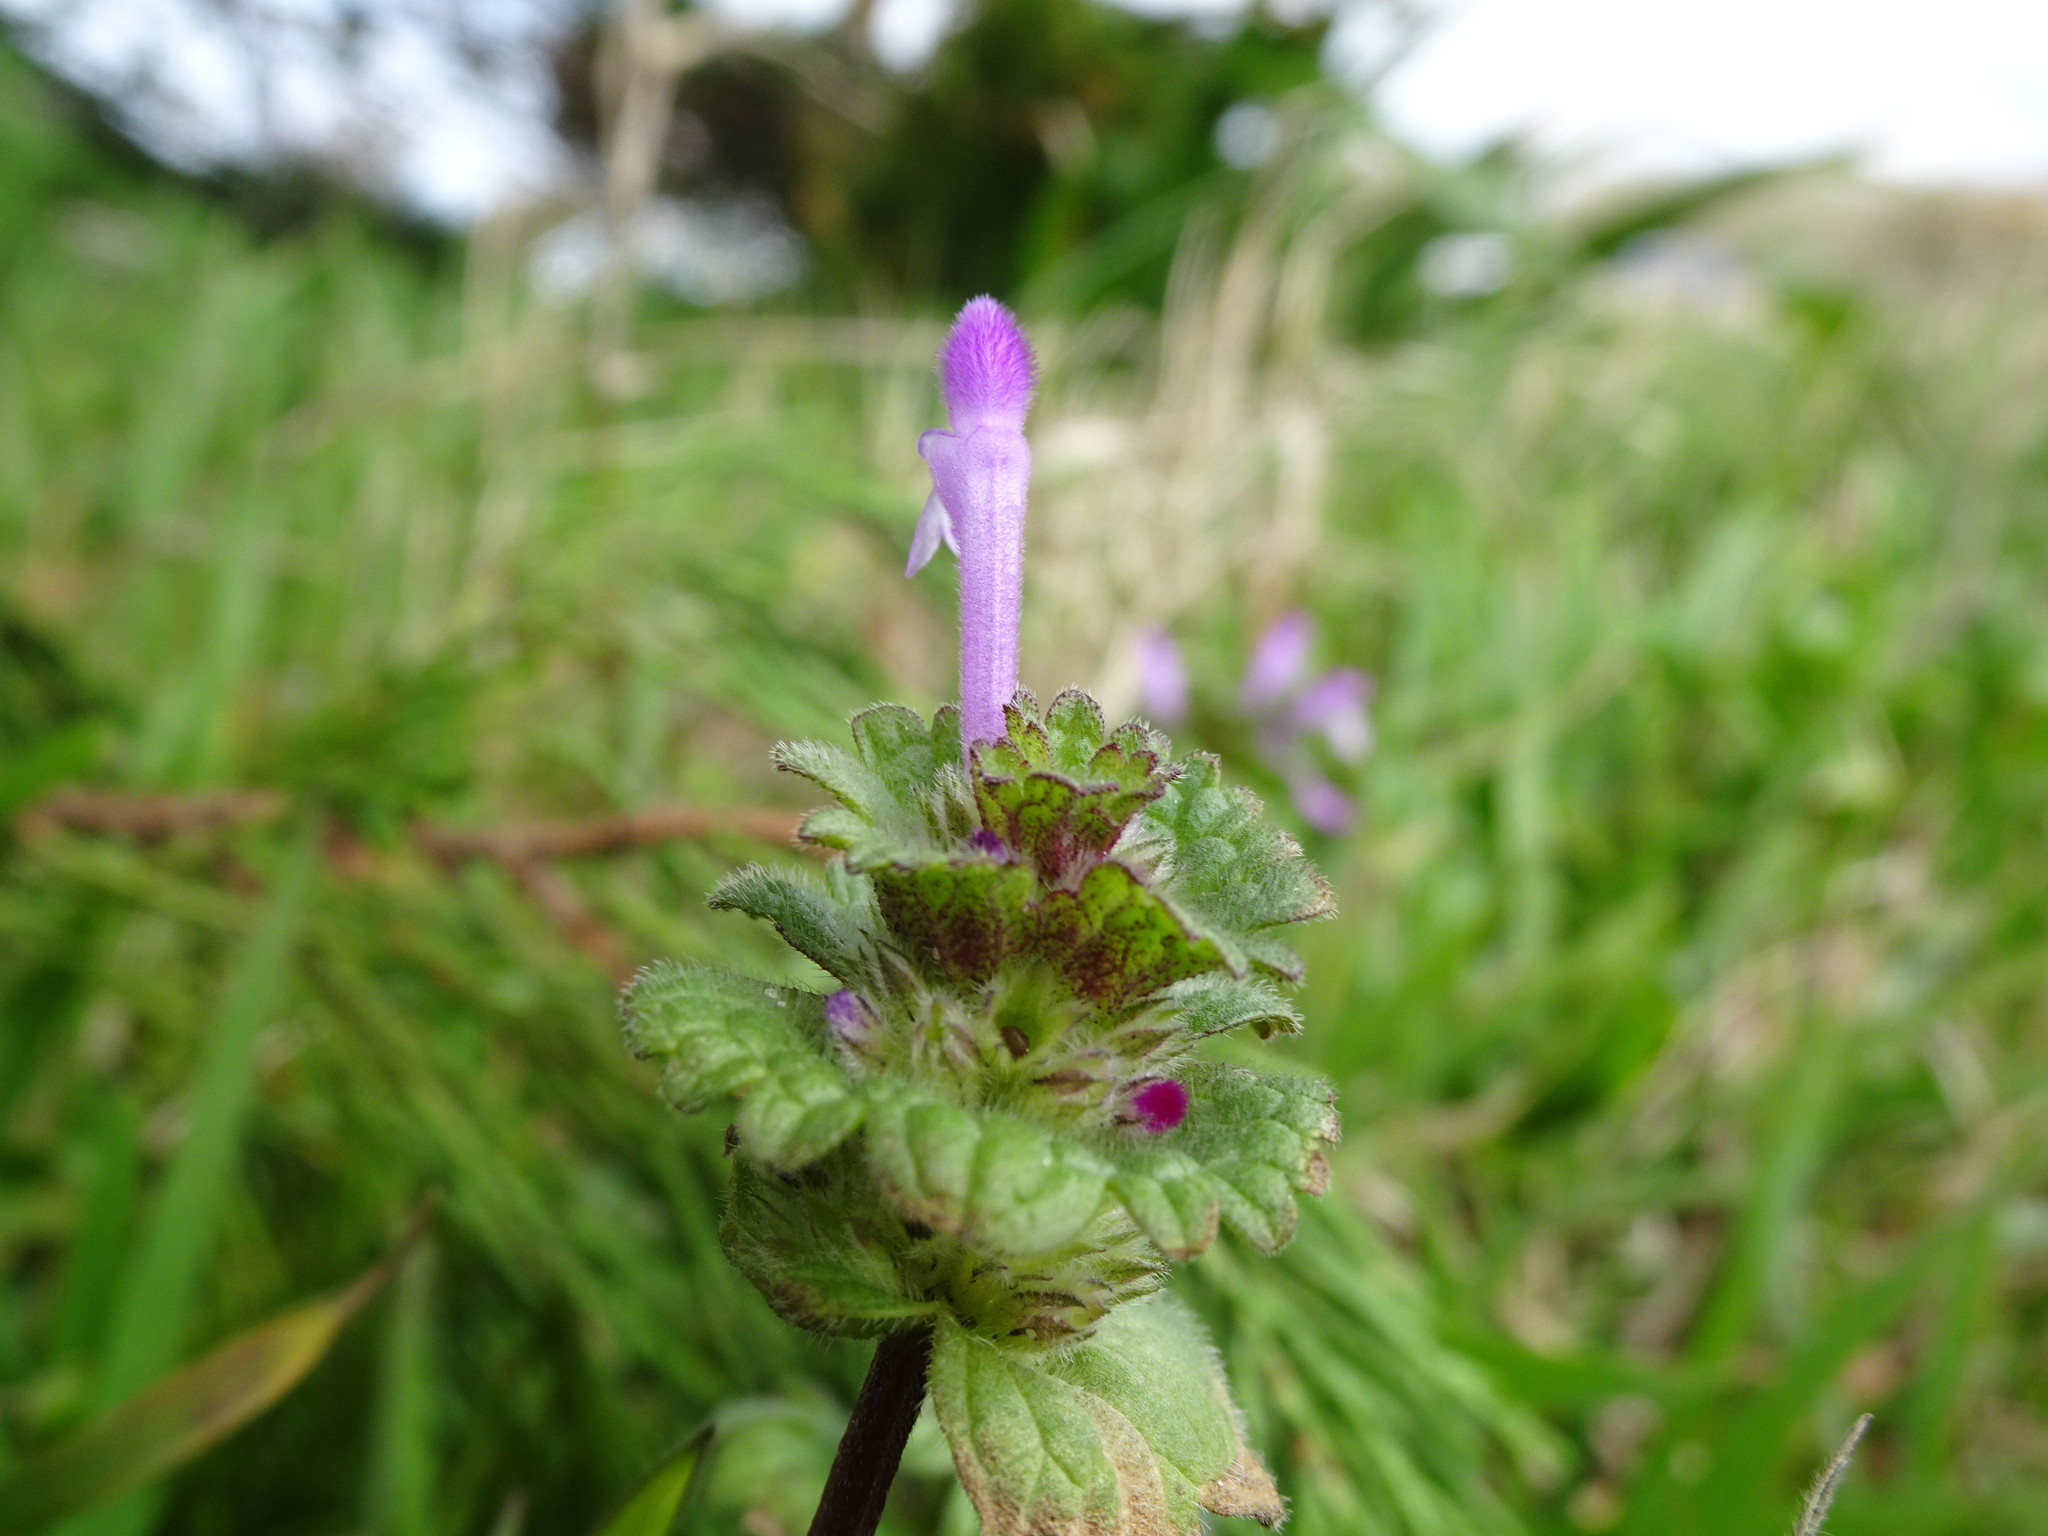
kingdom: Plantae
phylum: Tracheophyta
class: Magnoliopsida
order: Lamiales
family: Lamiaceae
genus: Lamium
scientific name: Lamium amplexicaule
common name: Henbit dead-nettle
